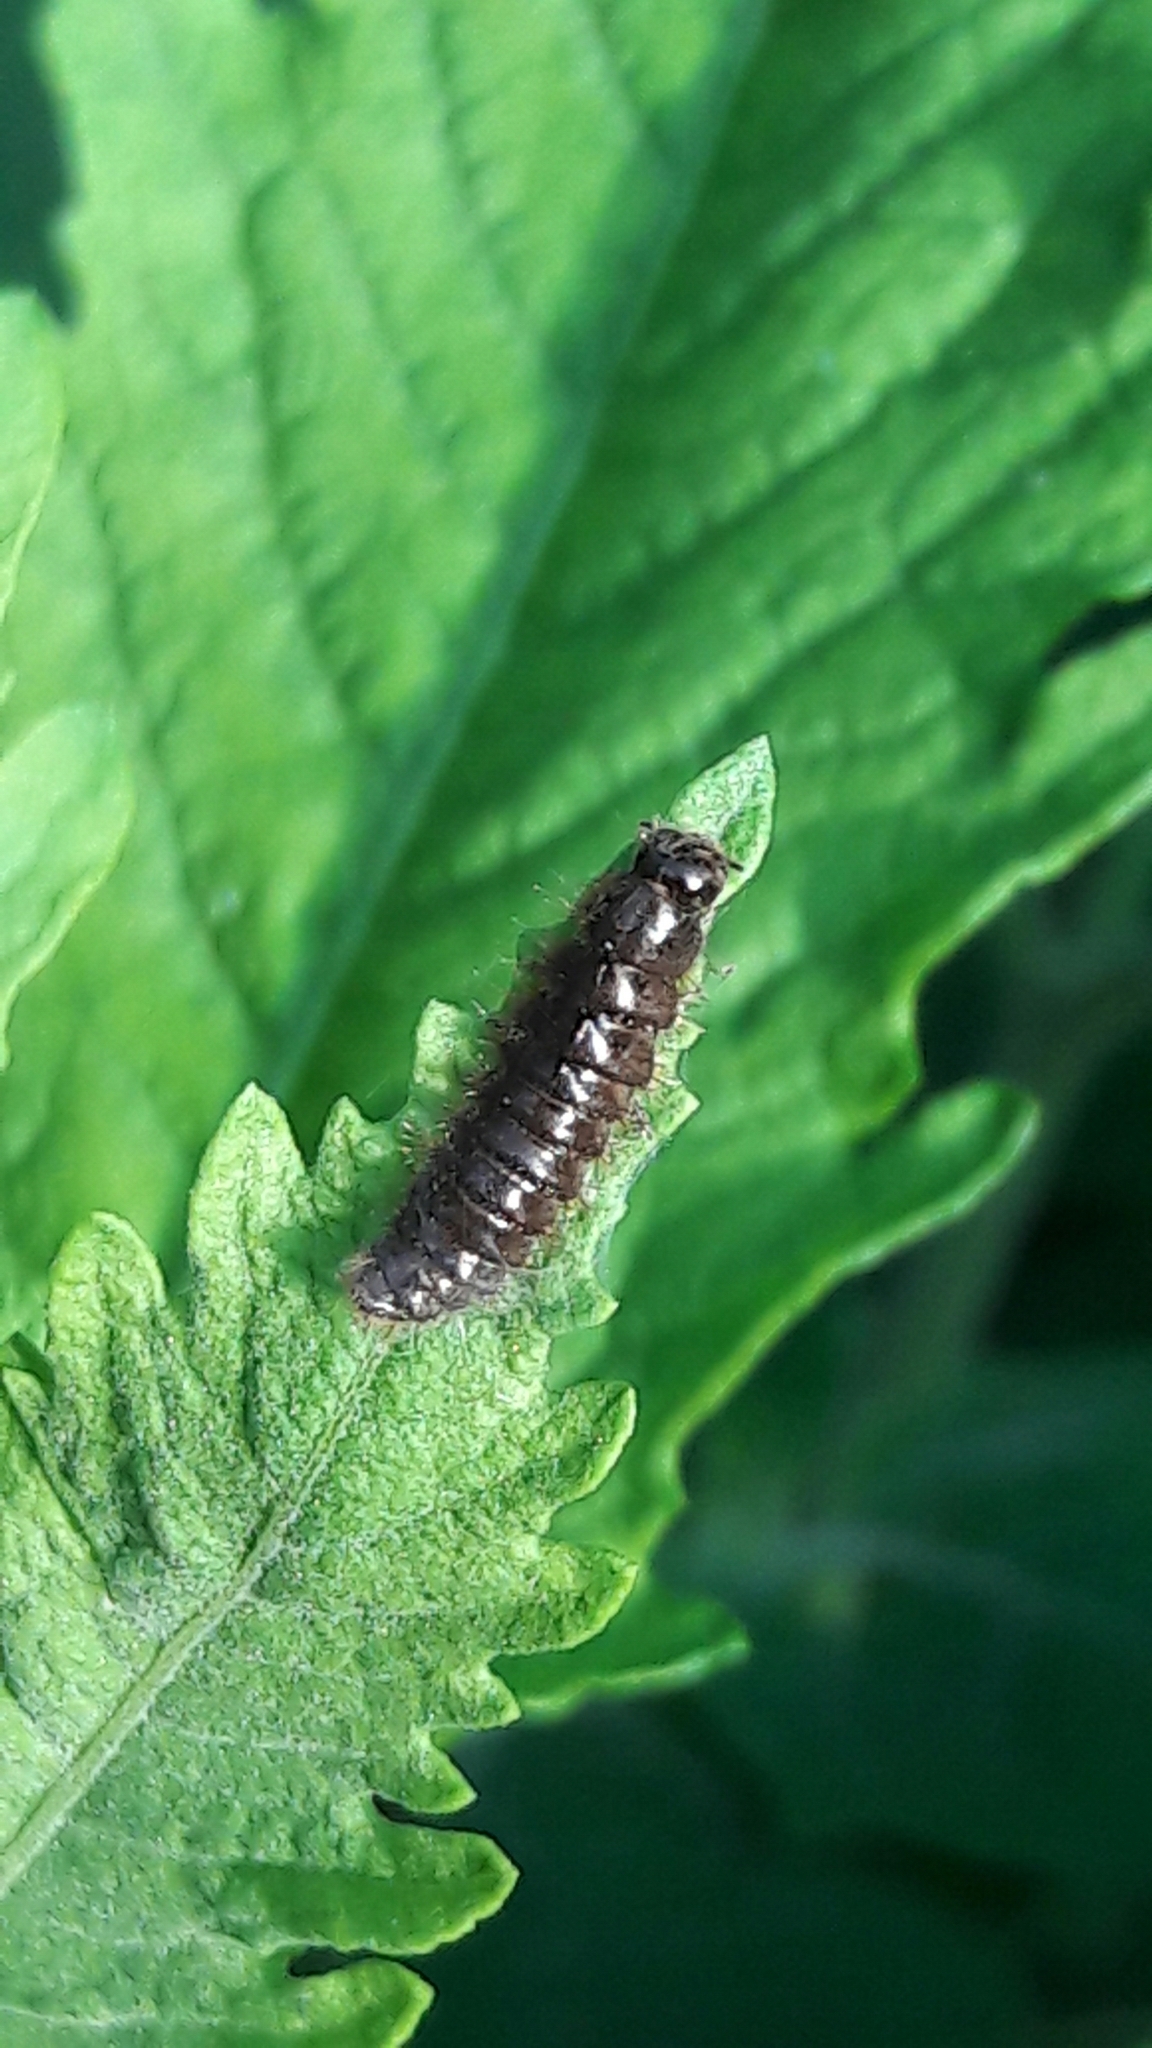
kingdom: Animalia
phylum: Arthropoda
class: Insecta
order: Coleoptera
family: Tenebrionidae
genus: Lagria
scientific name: Lagria villosa
